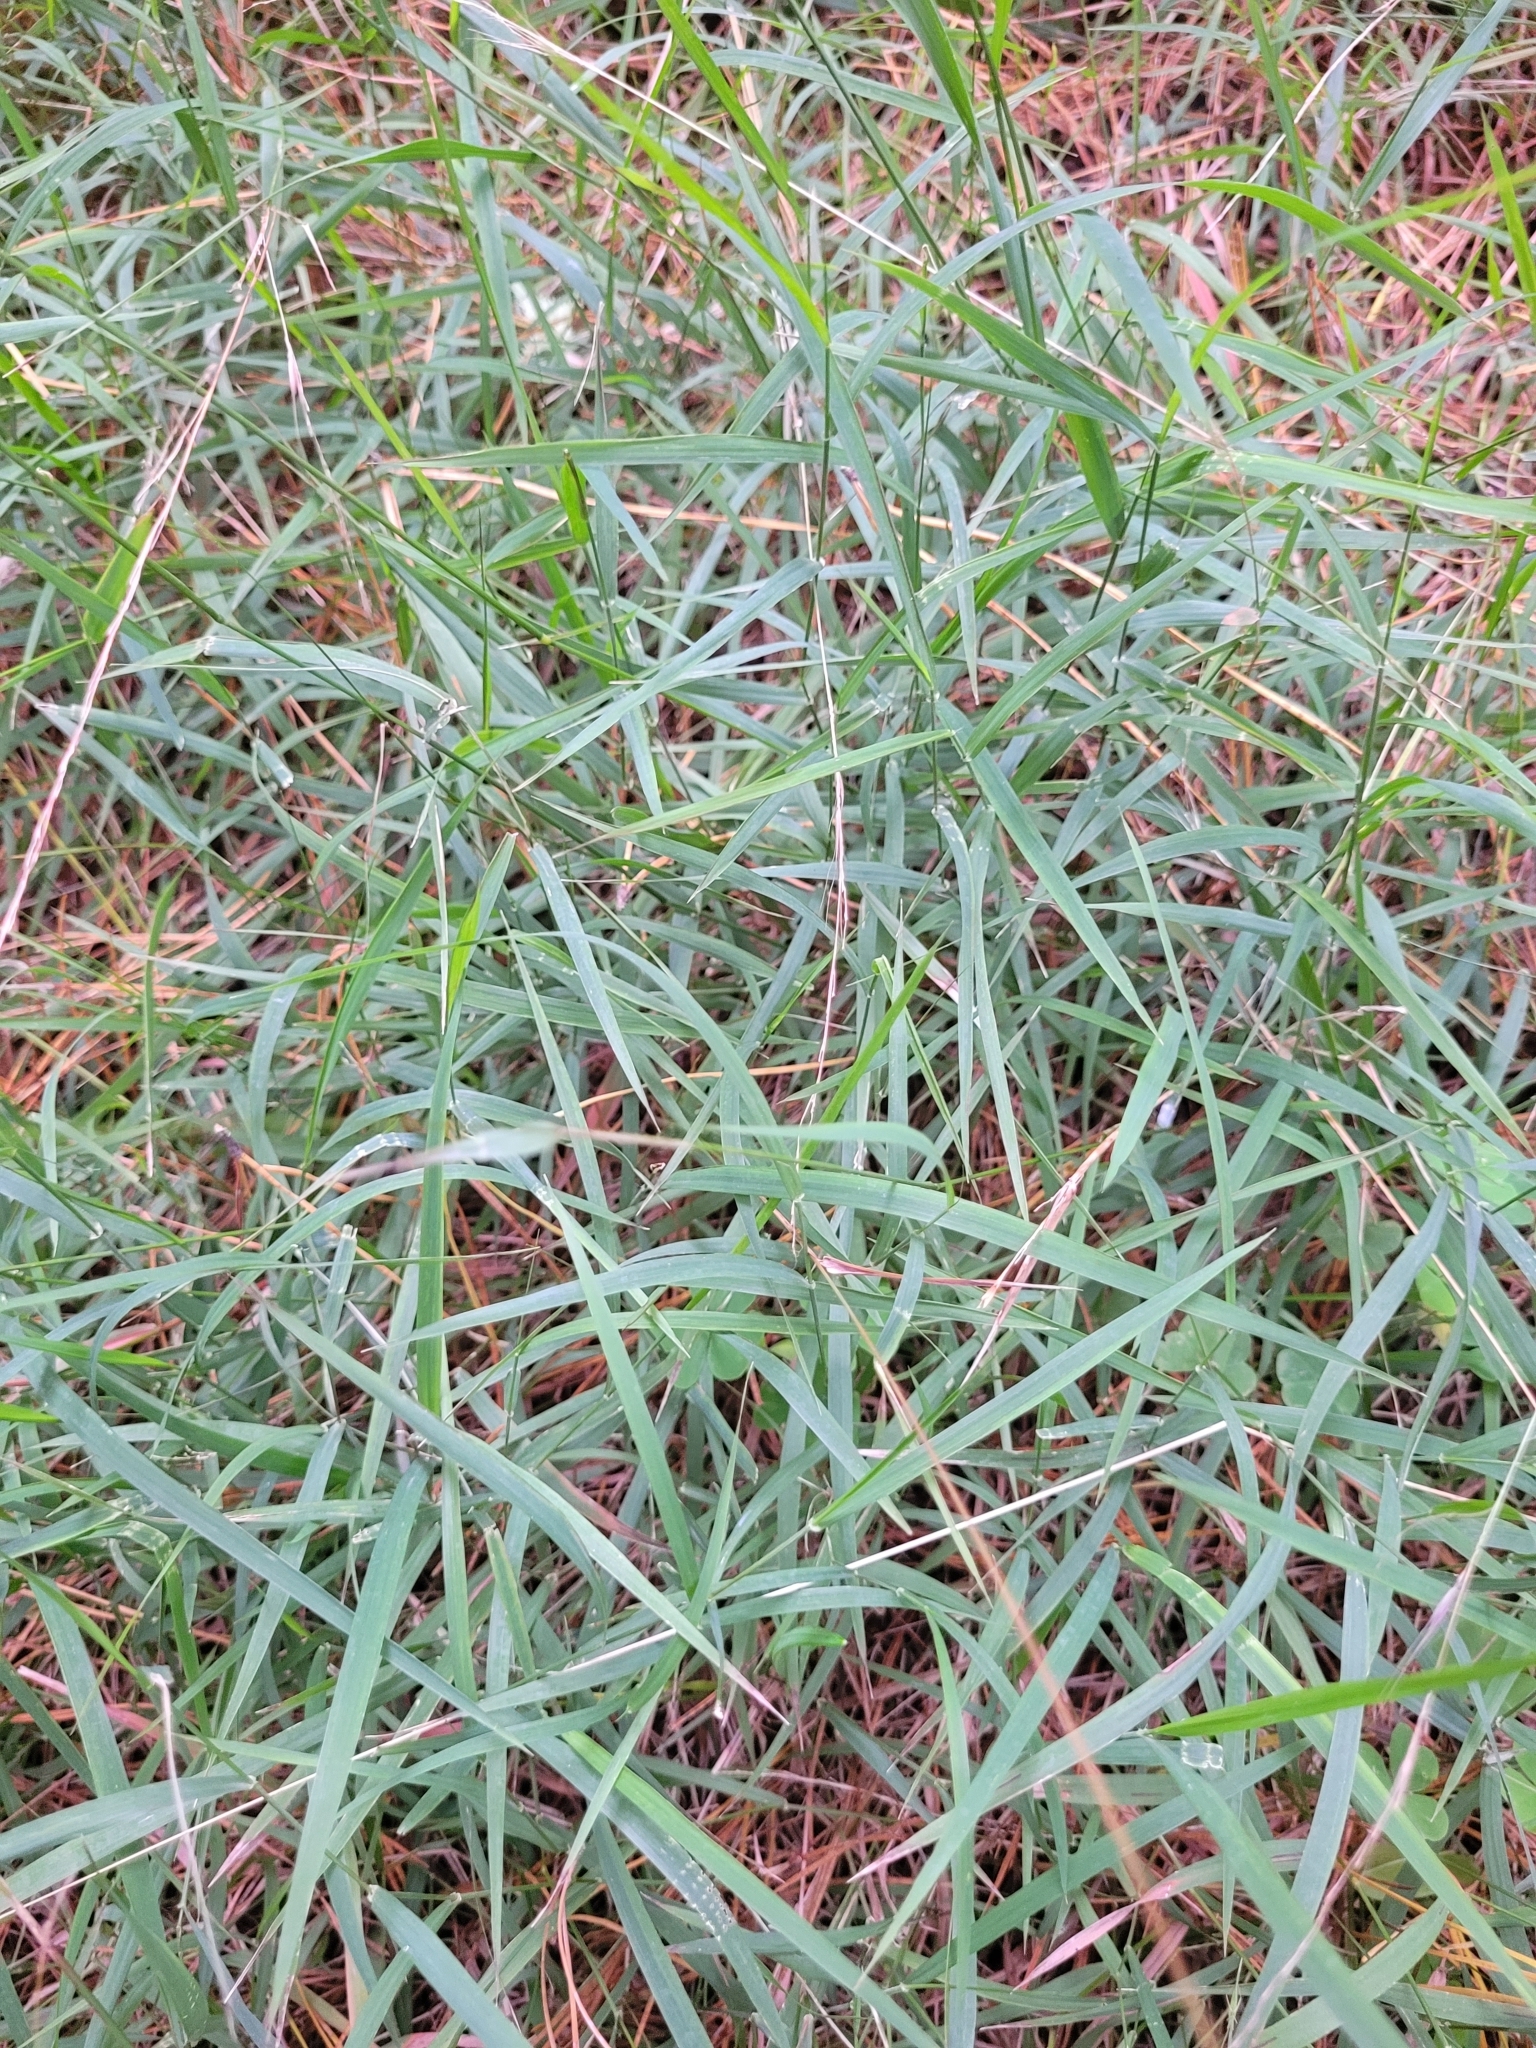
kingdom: Plantae
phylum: Tracheophyta
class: Liliopsida
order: Poales
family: Poaceae
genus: Microlaena
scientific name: Microlaena stipoides
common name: Meadow ricegrass
